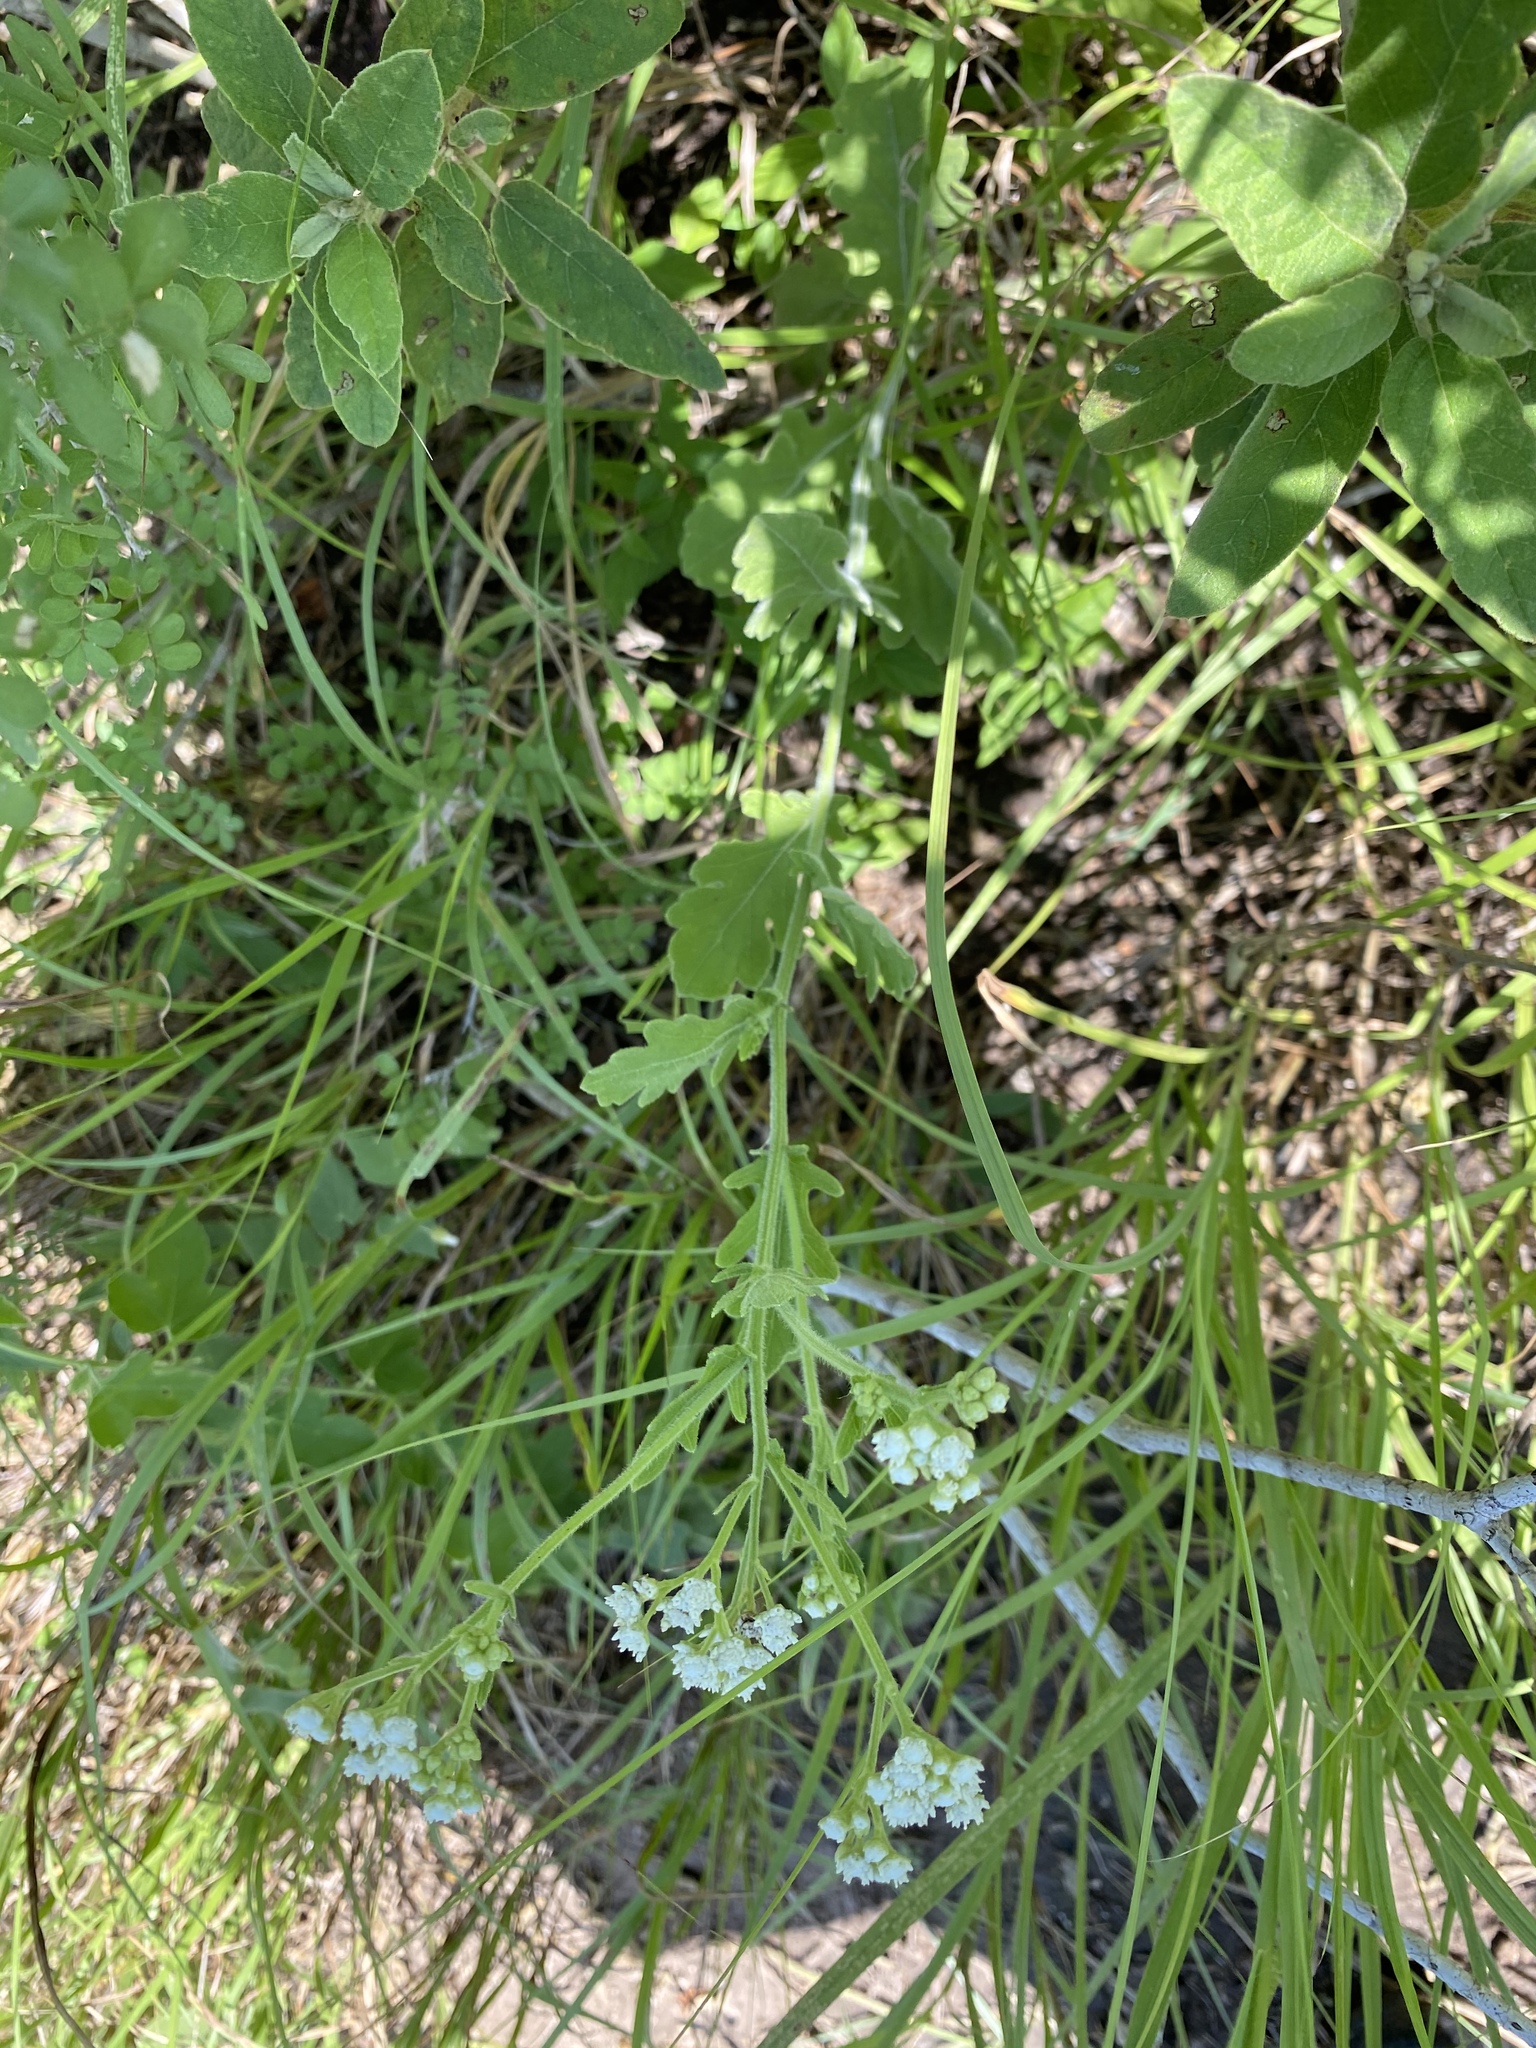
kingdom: Plantae
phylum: Tracheophyta
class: Magnoliopsida
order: Asterales
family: Asteraceae
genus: Parthenium
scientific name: Parthenium densipilum
